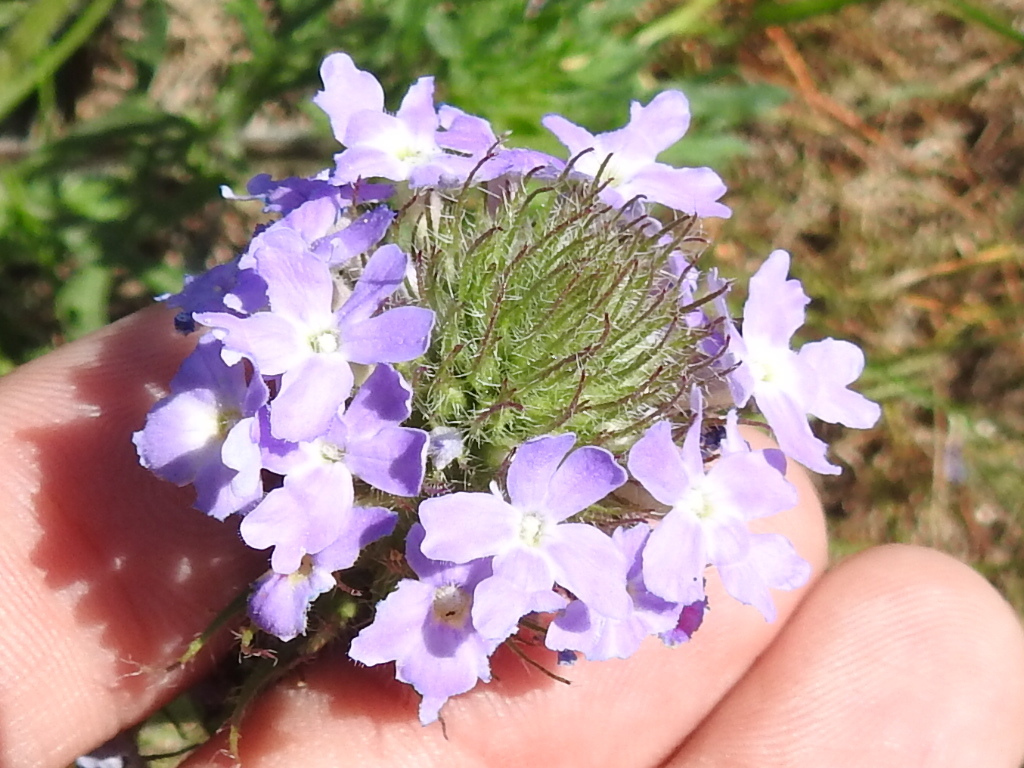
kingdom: Plantae
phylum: Tracheophyta
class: Magnoliopsida
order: Lamiales
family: Verbenaceae
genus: Verbena
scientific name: Verbena bipinnatifida
